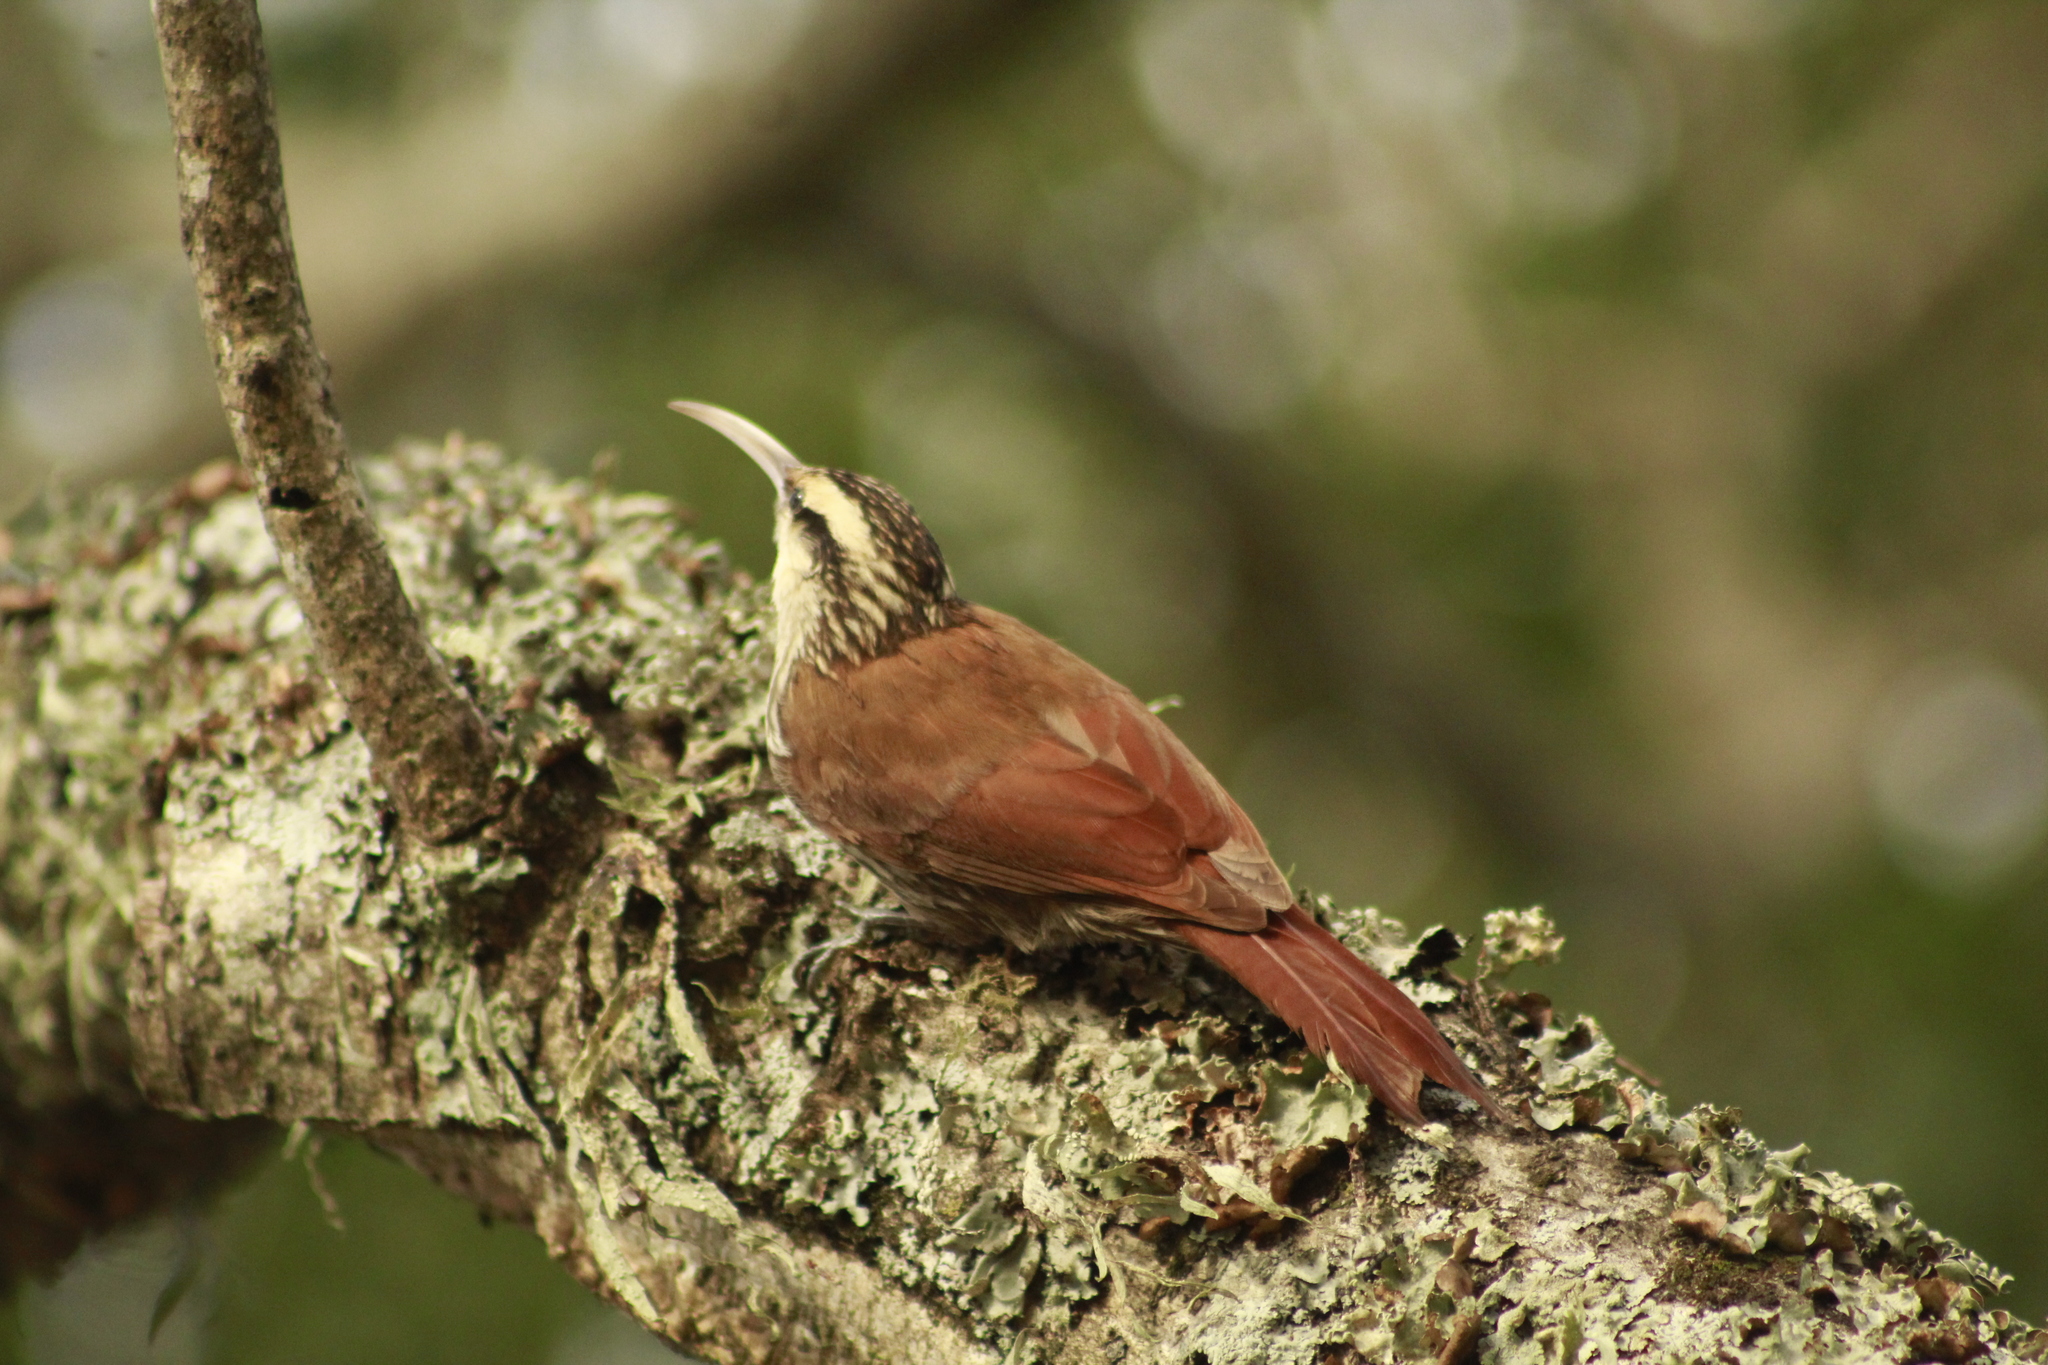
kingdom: Animalia
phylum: Chordata
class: Aves
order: Passeriformes
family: Furnariidae
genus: Lepidocolaptes
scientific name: Lepidocolaptes angustirostris
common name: Narrow-billed woodcreeper
